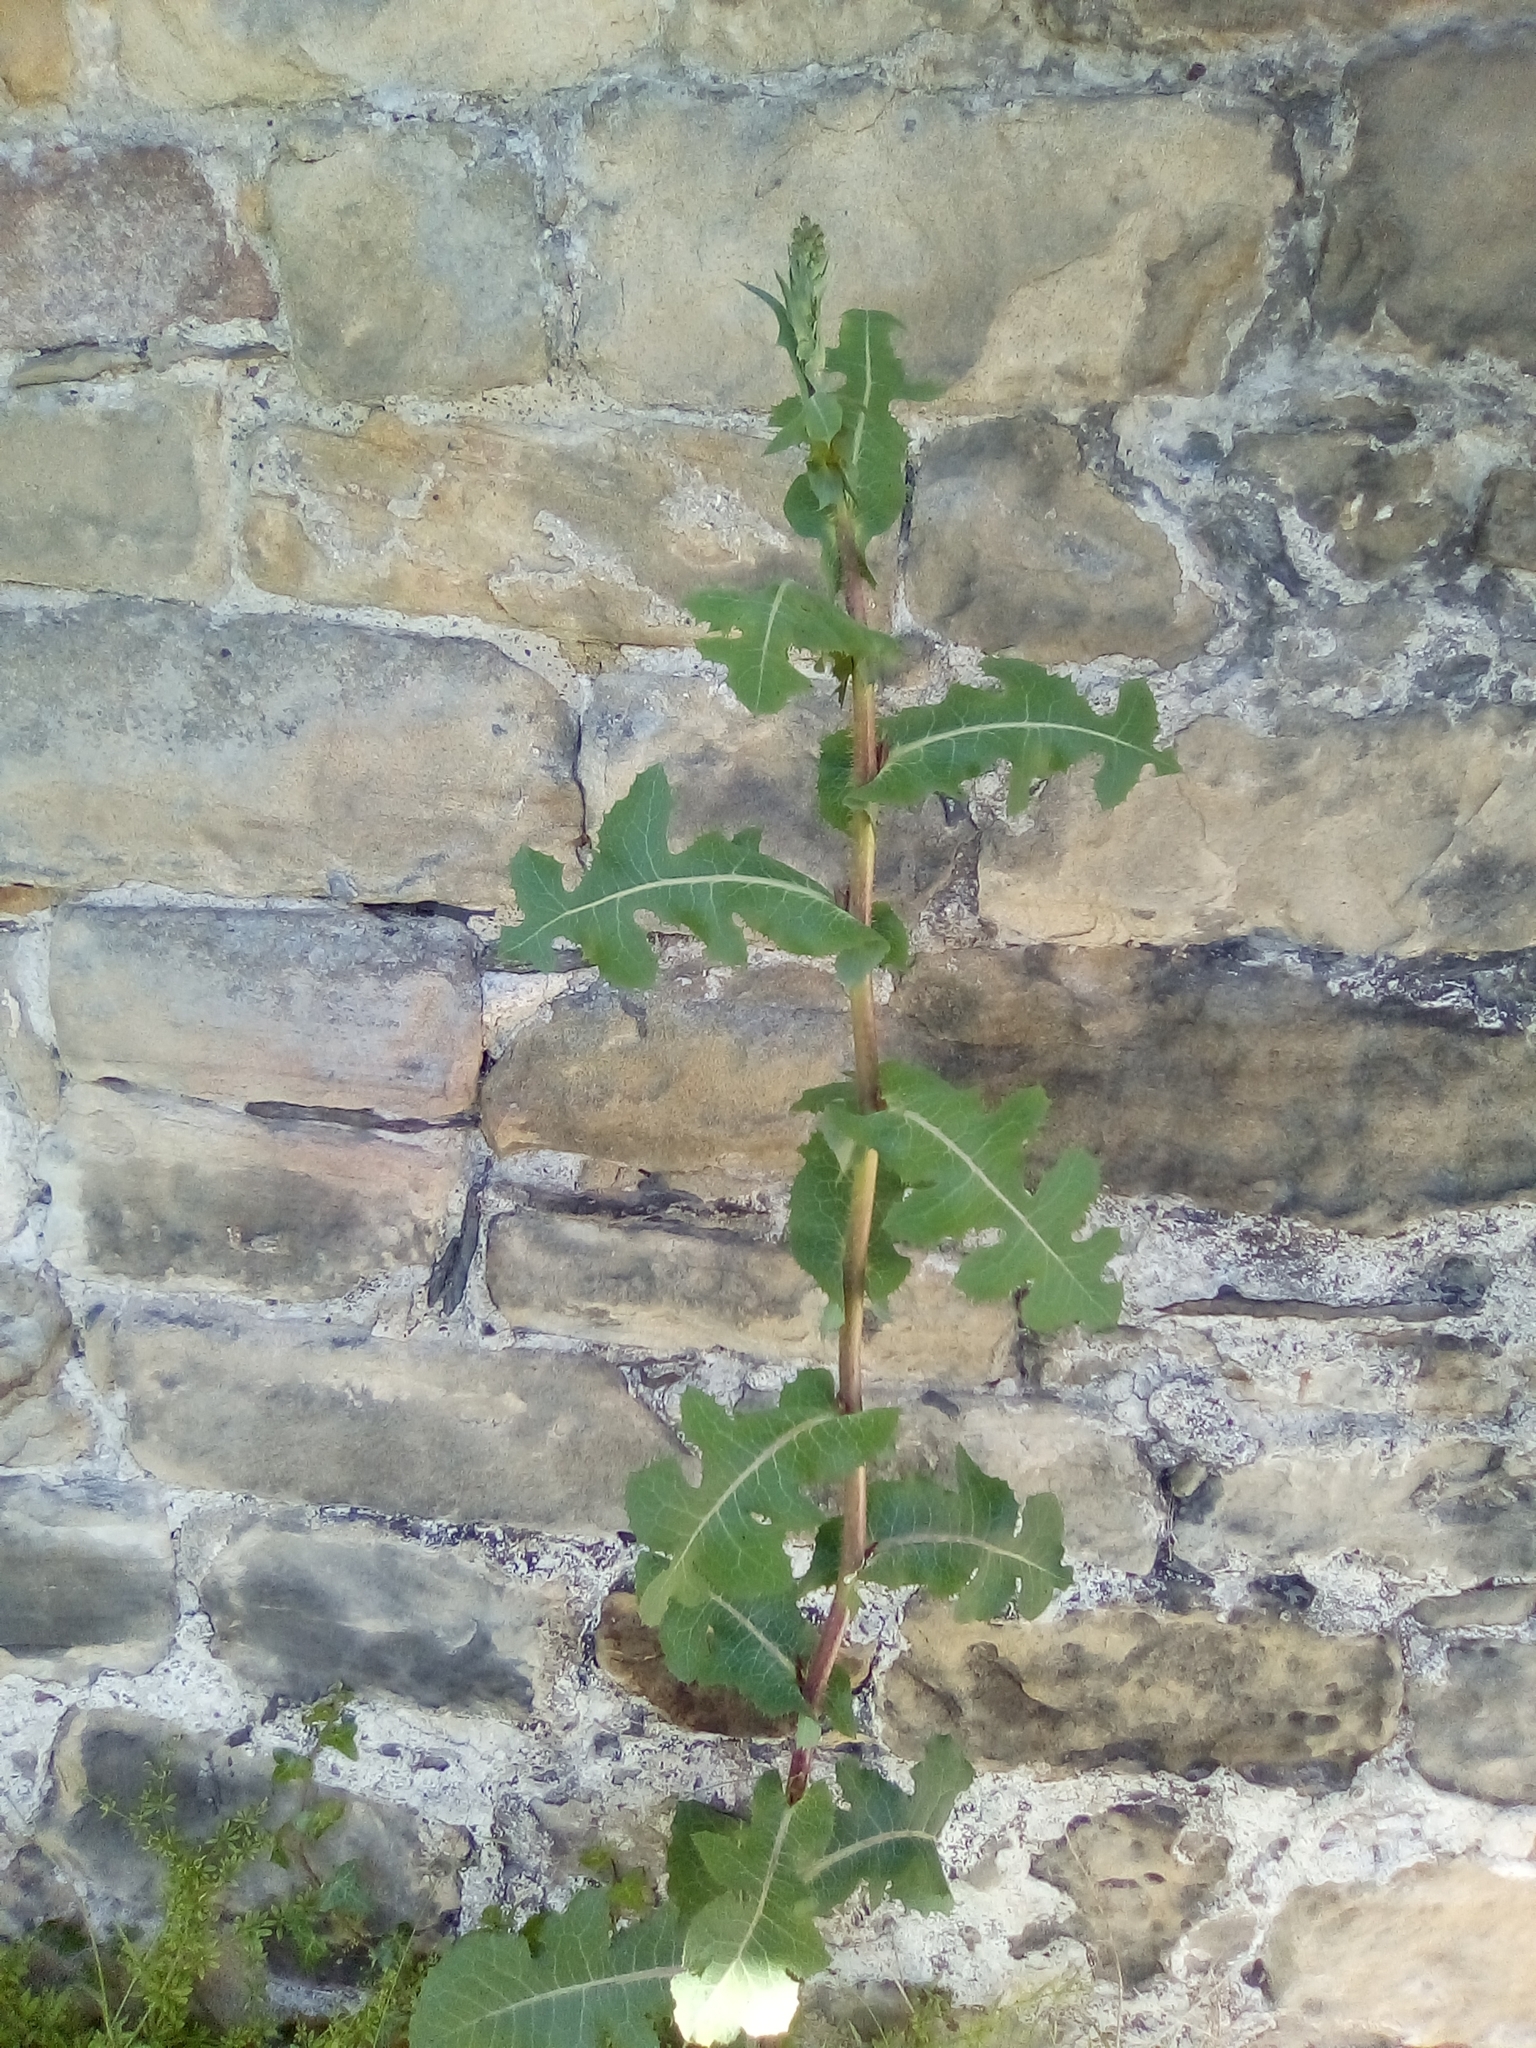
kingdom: Plantae
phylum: Tracheophyta
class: Magnoliopsida
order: Asterales
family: Asteraceae
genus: Lactuca
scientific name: Lactuca serriola
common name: Prickly lettuce
